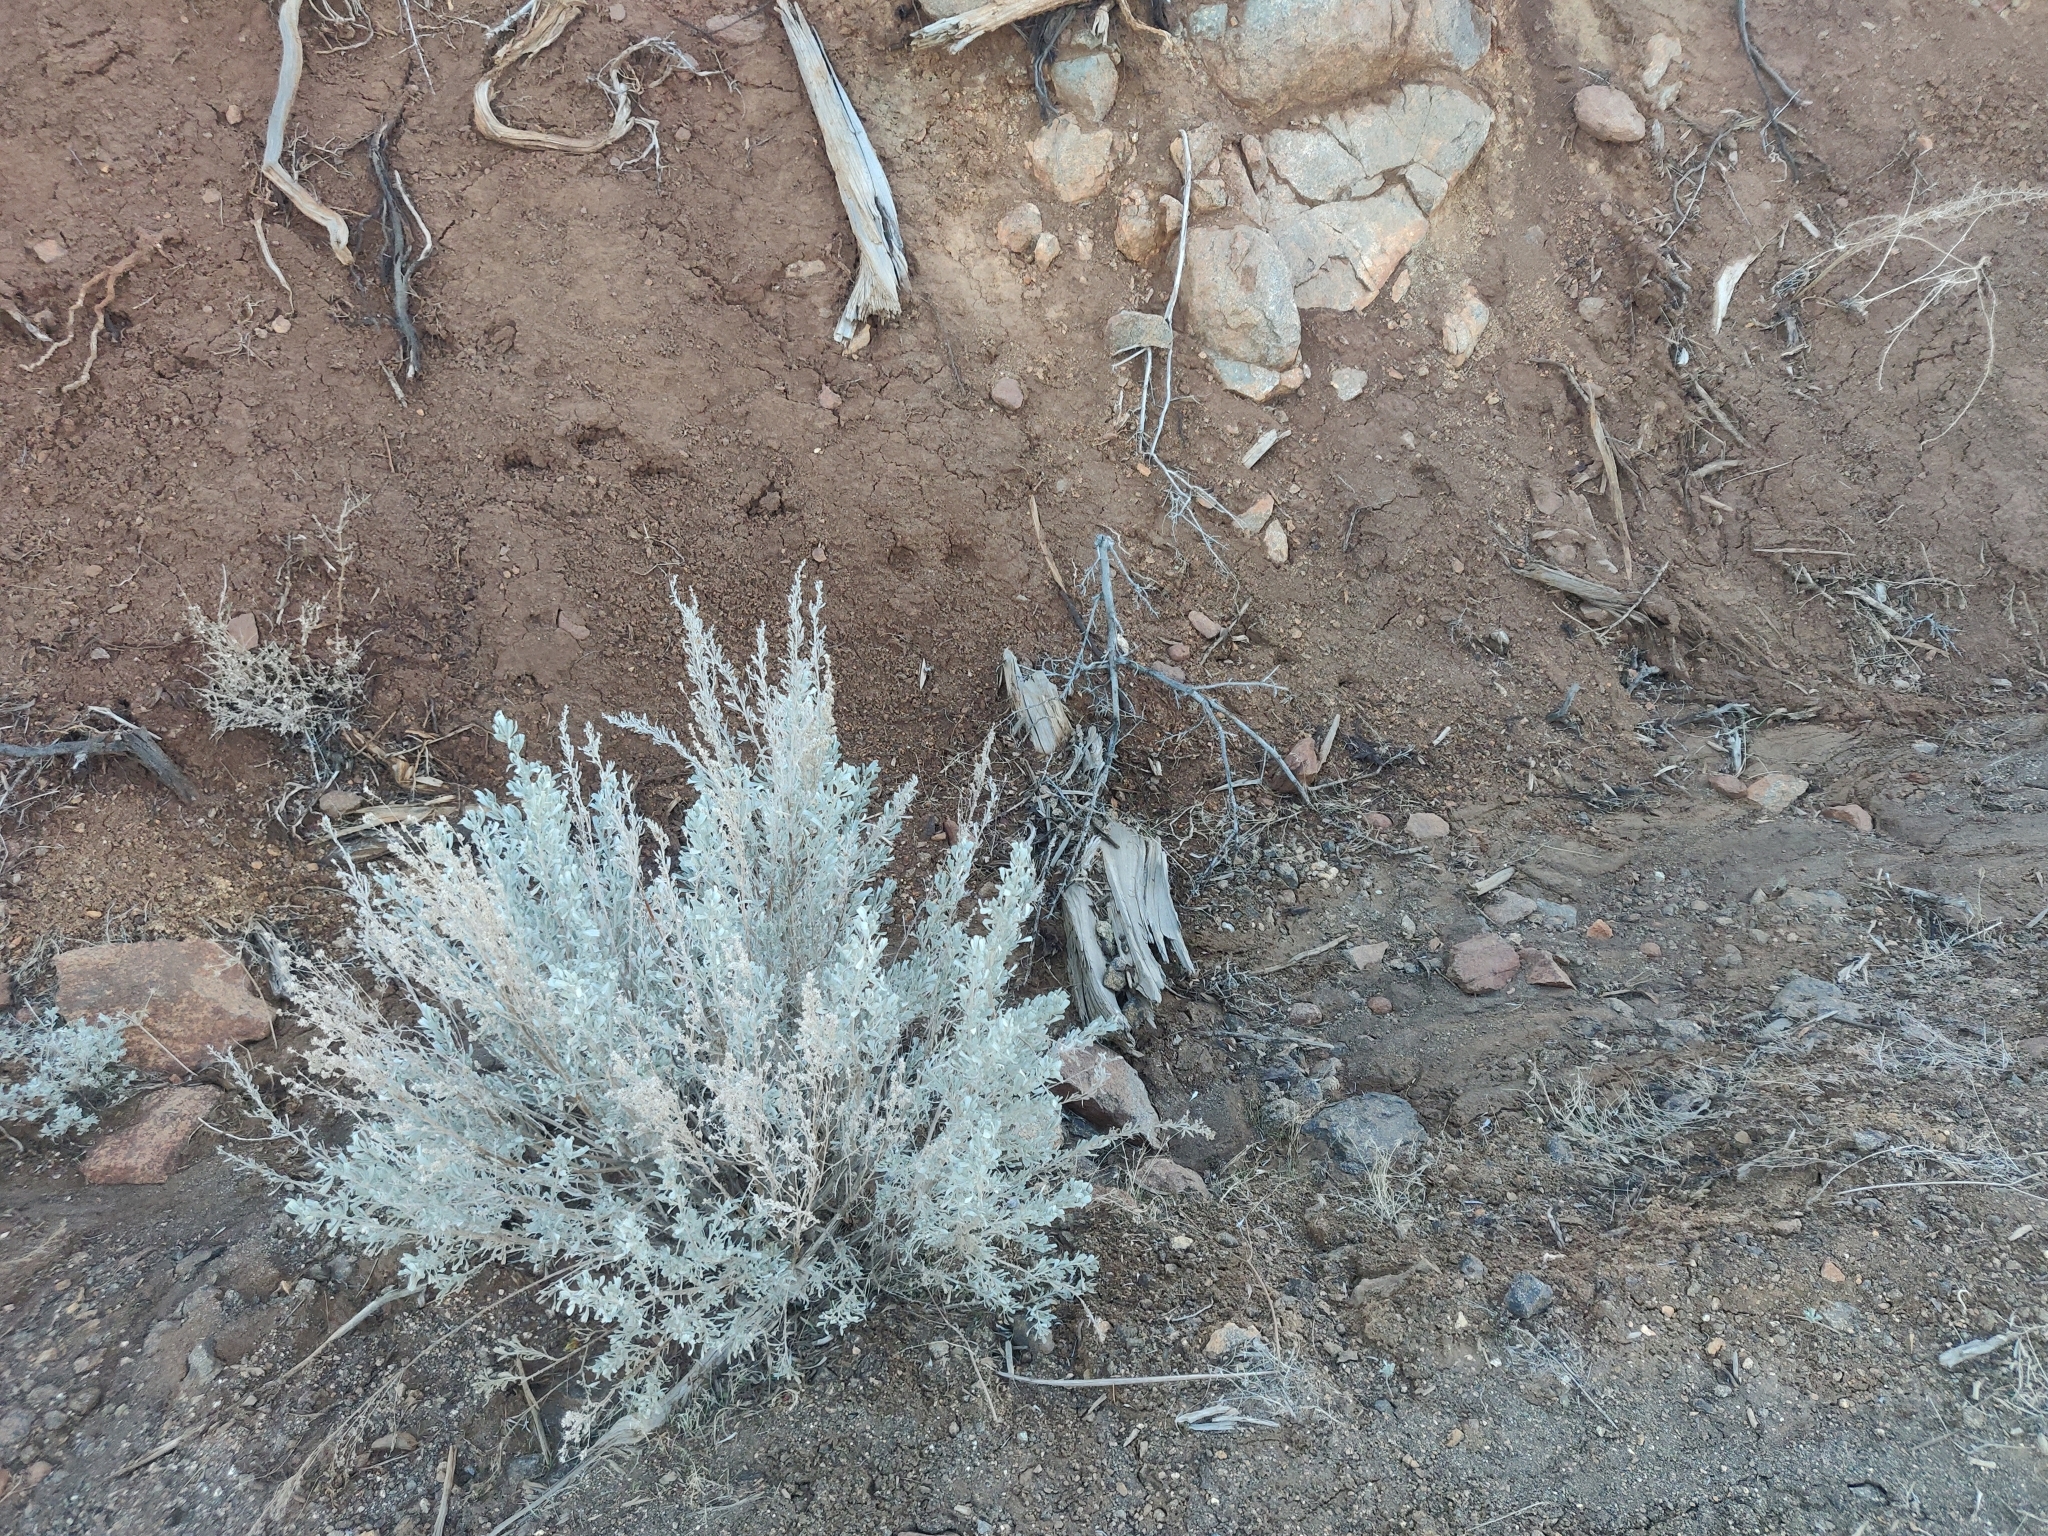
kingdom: Plantae
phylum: Tracheophyta
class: Magnoliopsida
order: Asterales
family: Asteraceae
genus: Artemisia
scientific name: Artemisia tridentata
